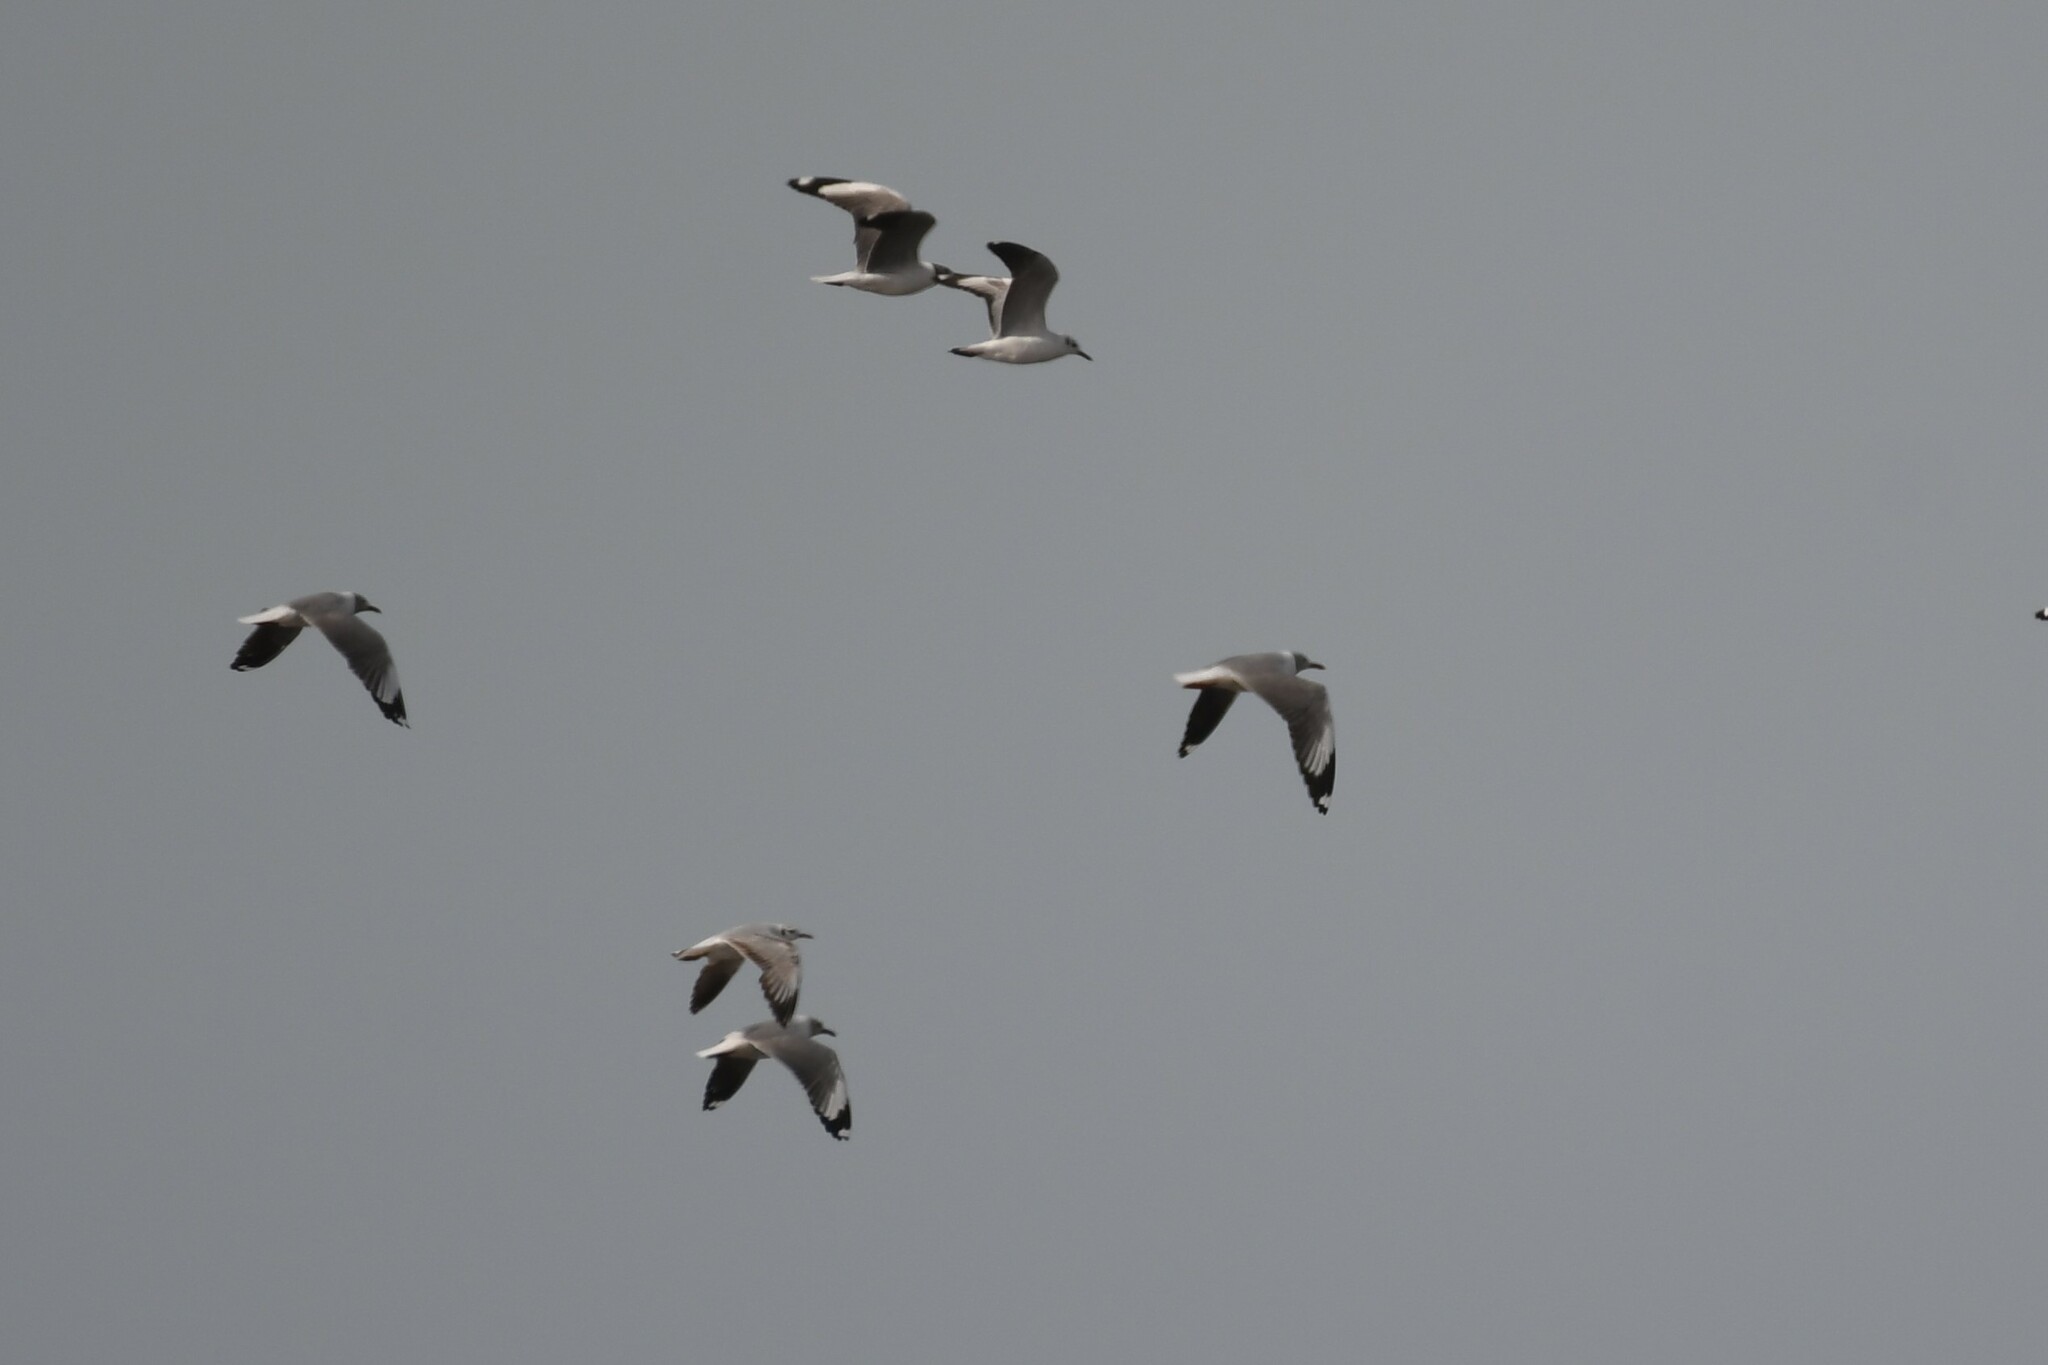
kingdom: Animalia
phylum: Chordata
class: Aves
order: Charadriiformes
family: Laridae
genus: Chroicocephalus
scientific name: Chroicocephalus cirrocephalus
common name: Grey-headed gull
